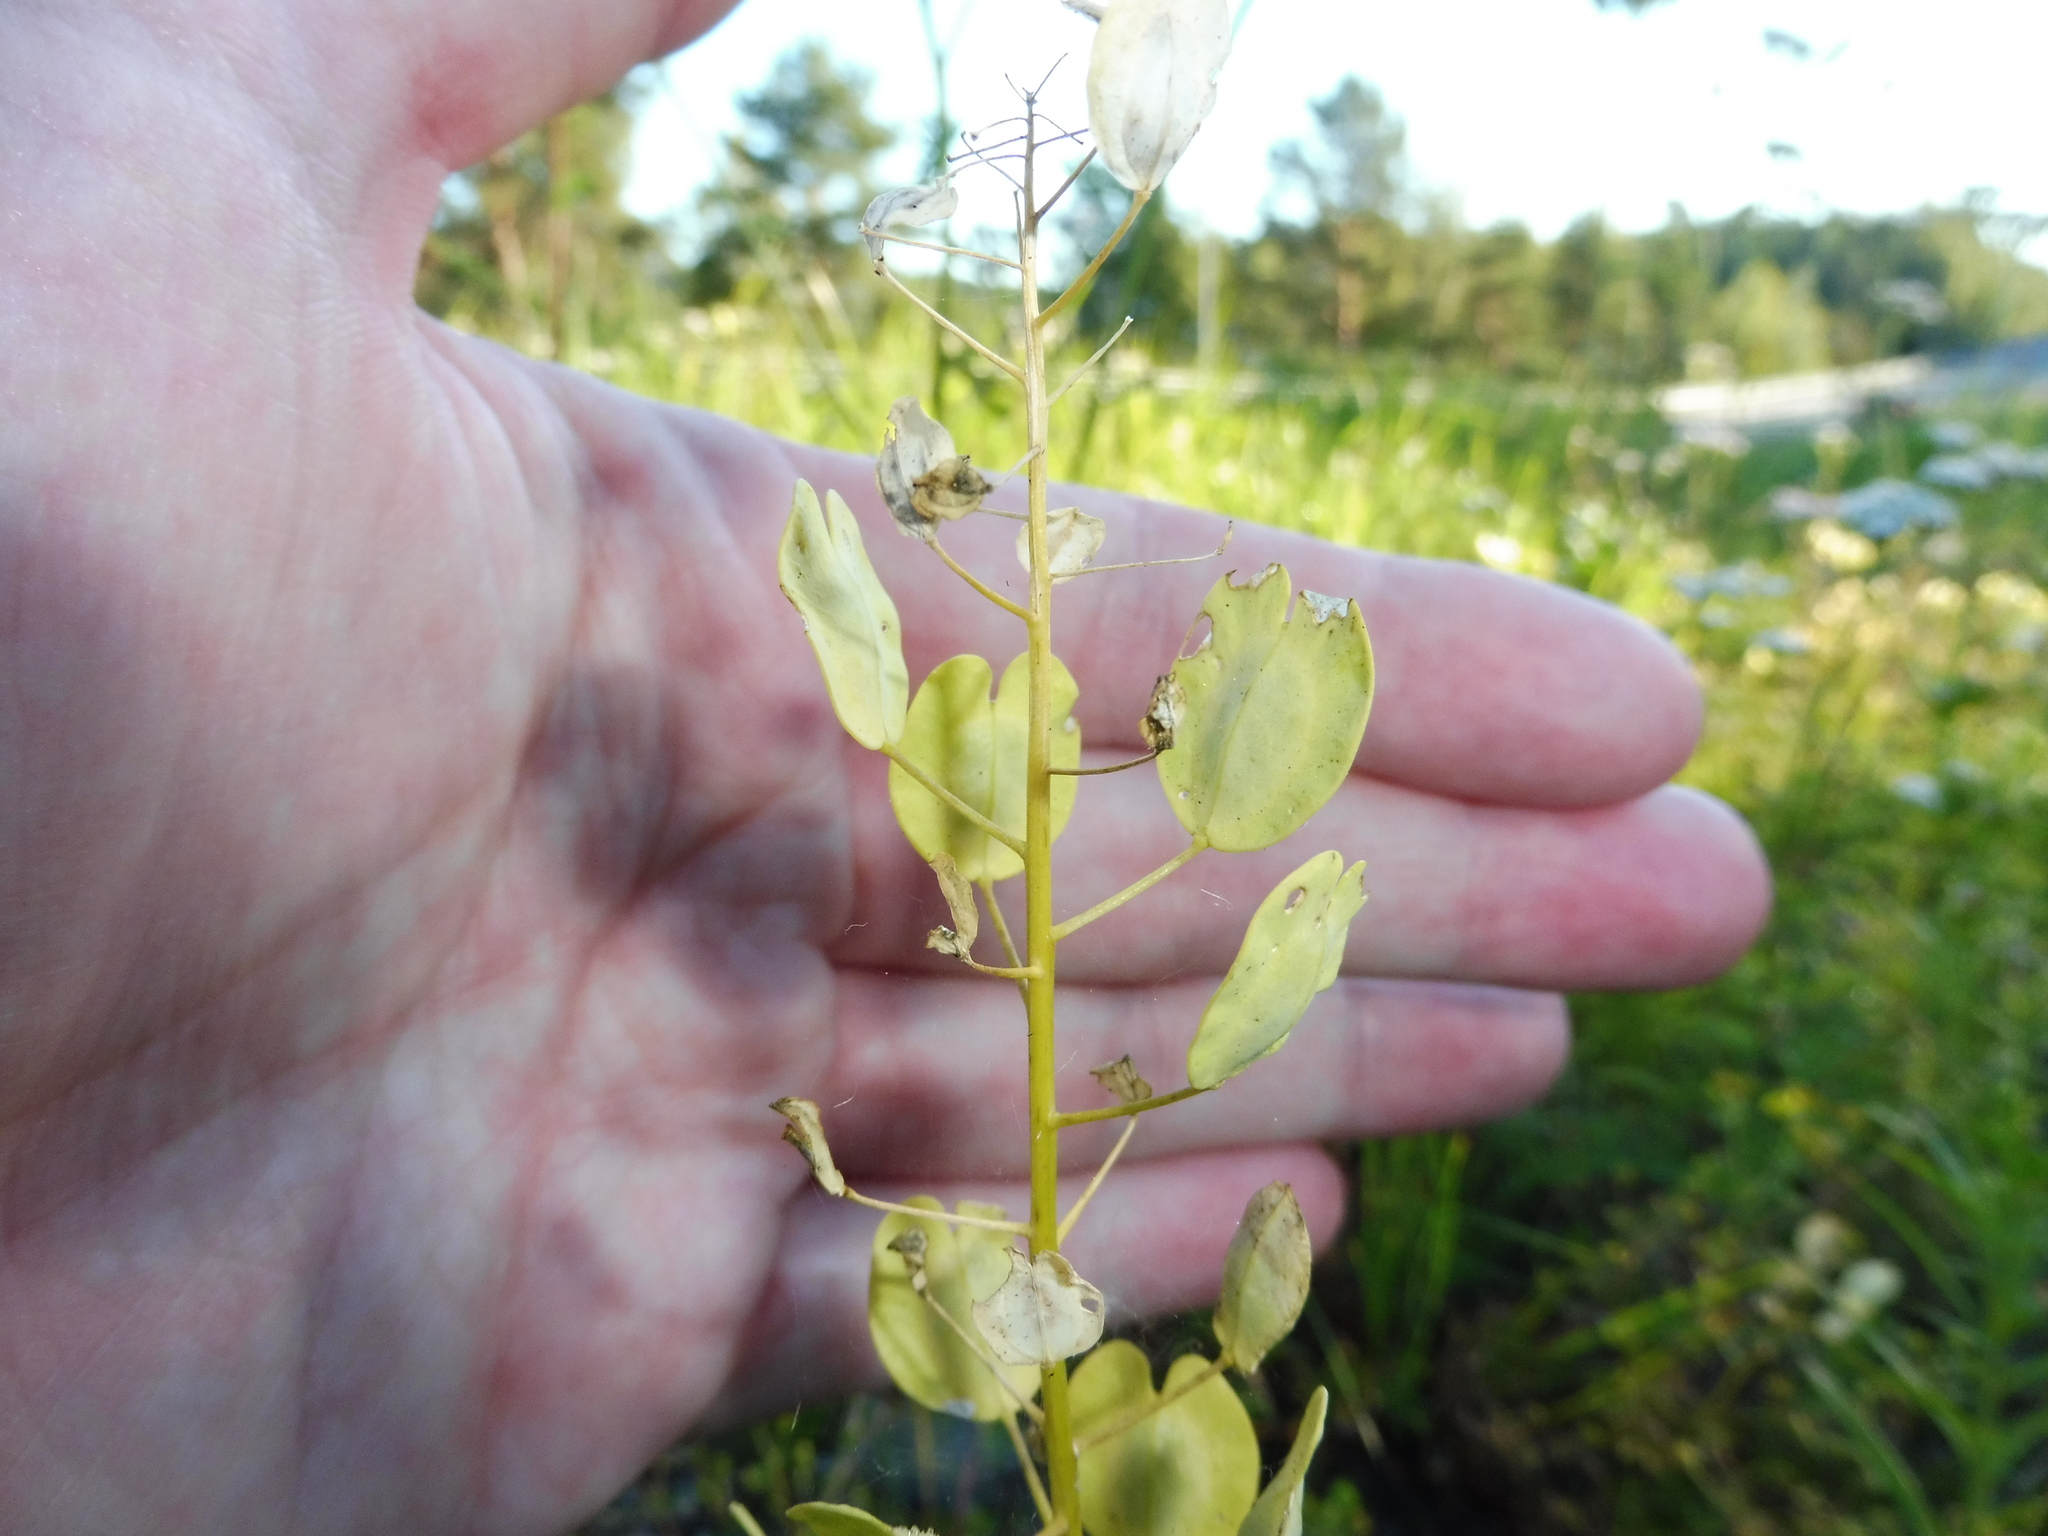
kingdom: Plantae
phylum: Tracheophyta
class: Magnoliopsida
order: Brassicales
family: Brassicaceae
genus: Thlaspi
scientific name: Thlaspi arvense
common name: Field pennycress
